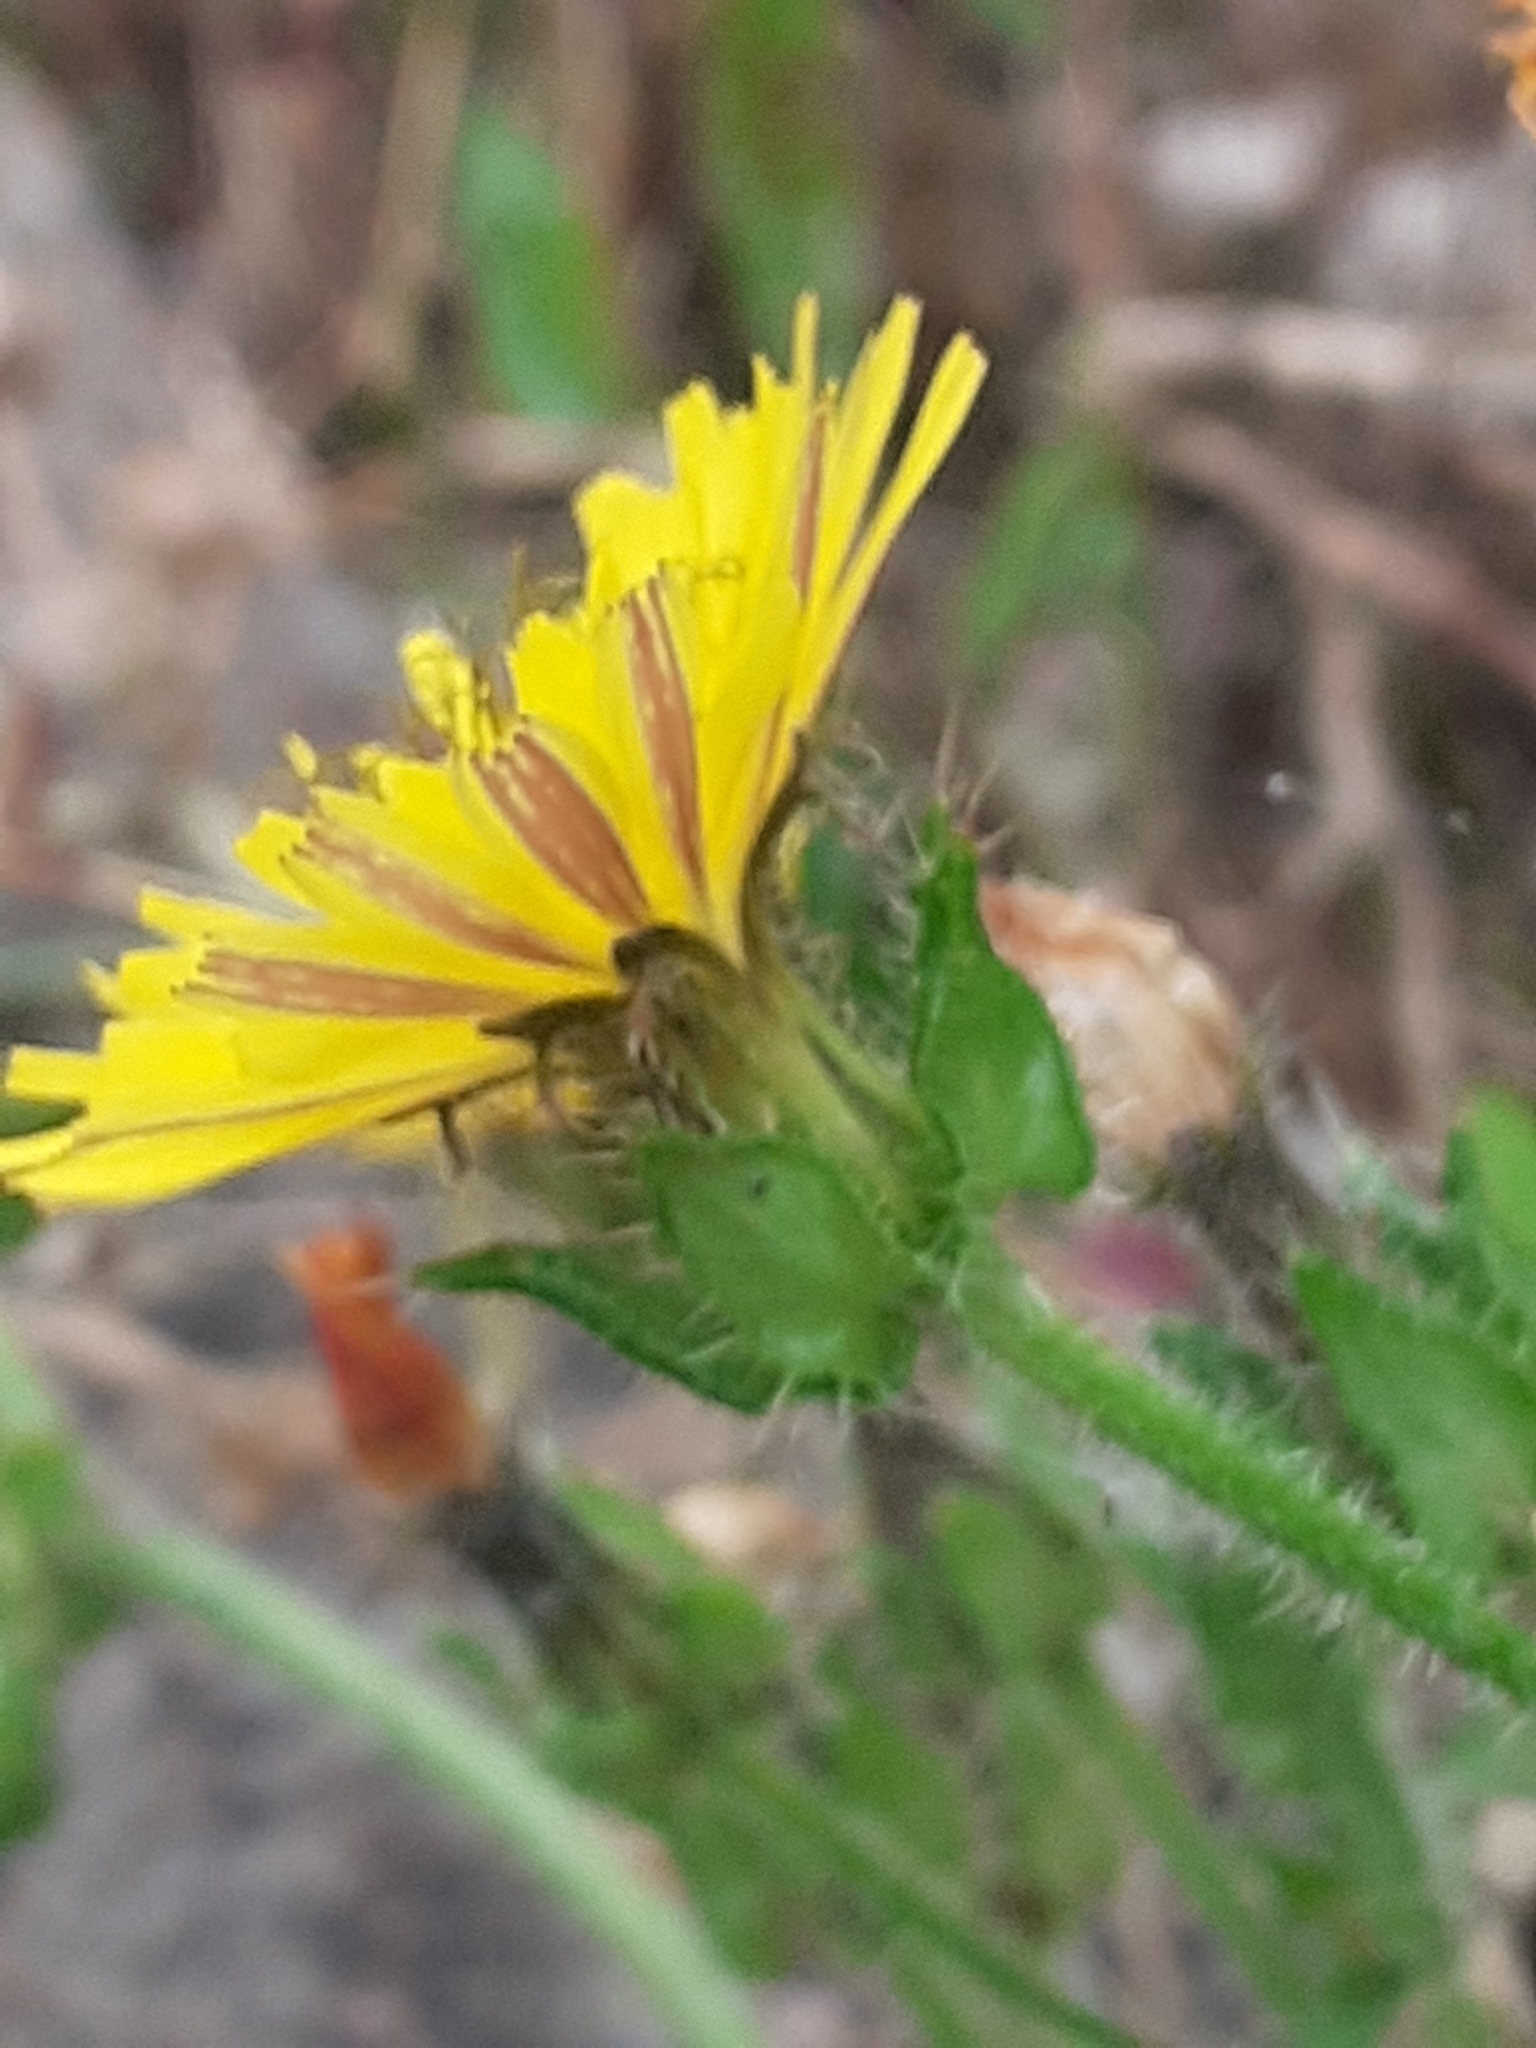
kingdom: Plantae
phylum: Tracheophyta
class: Magnoliopsida
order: Asterales
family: Asteraceae
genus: Helminthotheca
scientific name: Helminthotheca echioides
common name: Ox-tongue
